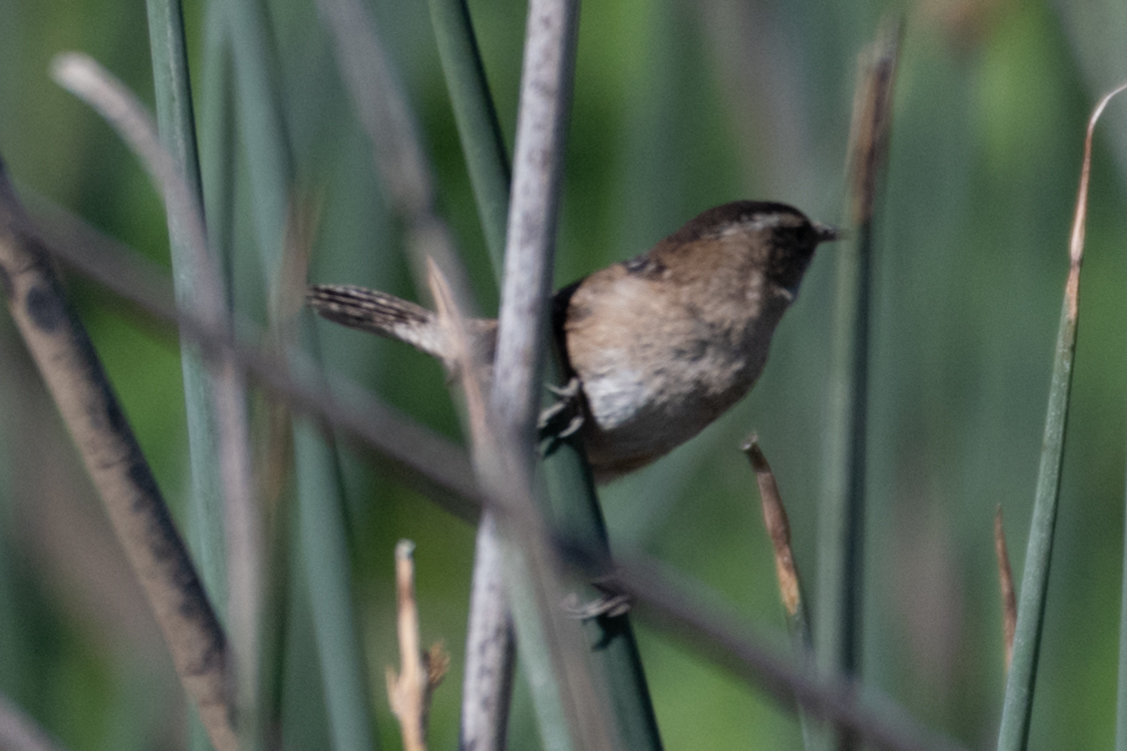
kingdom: Animalia
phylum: Chordata
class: Aves
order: Passeriformes
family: Troglodytidae
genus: Cistothorus
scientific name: Cistothorus palustris
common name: Marsh wren
